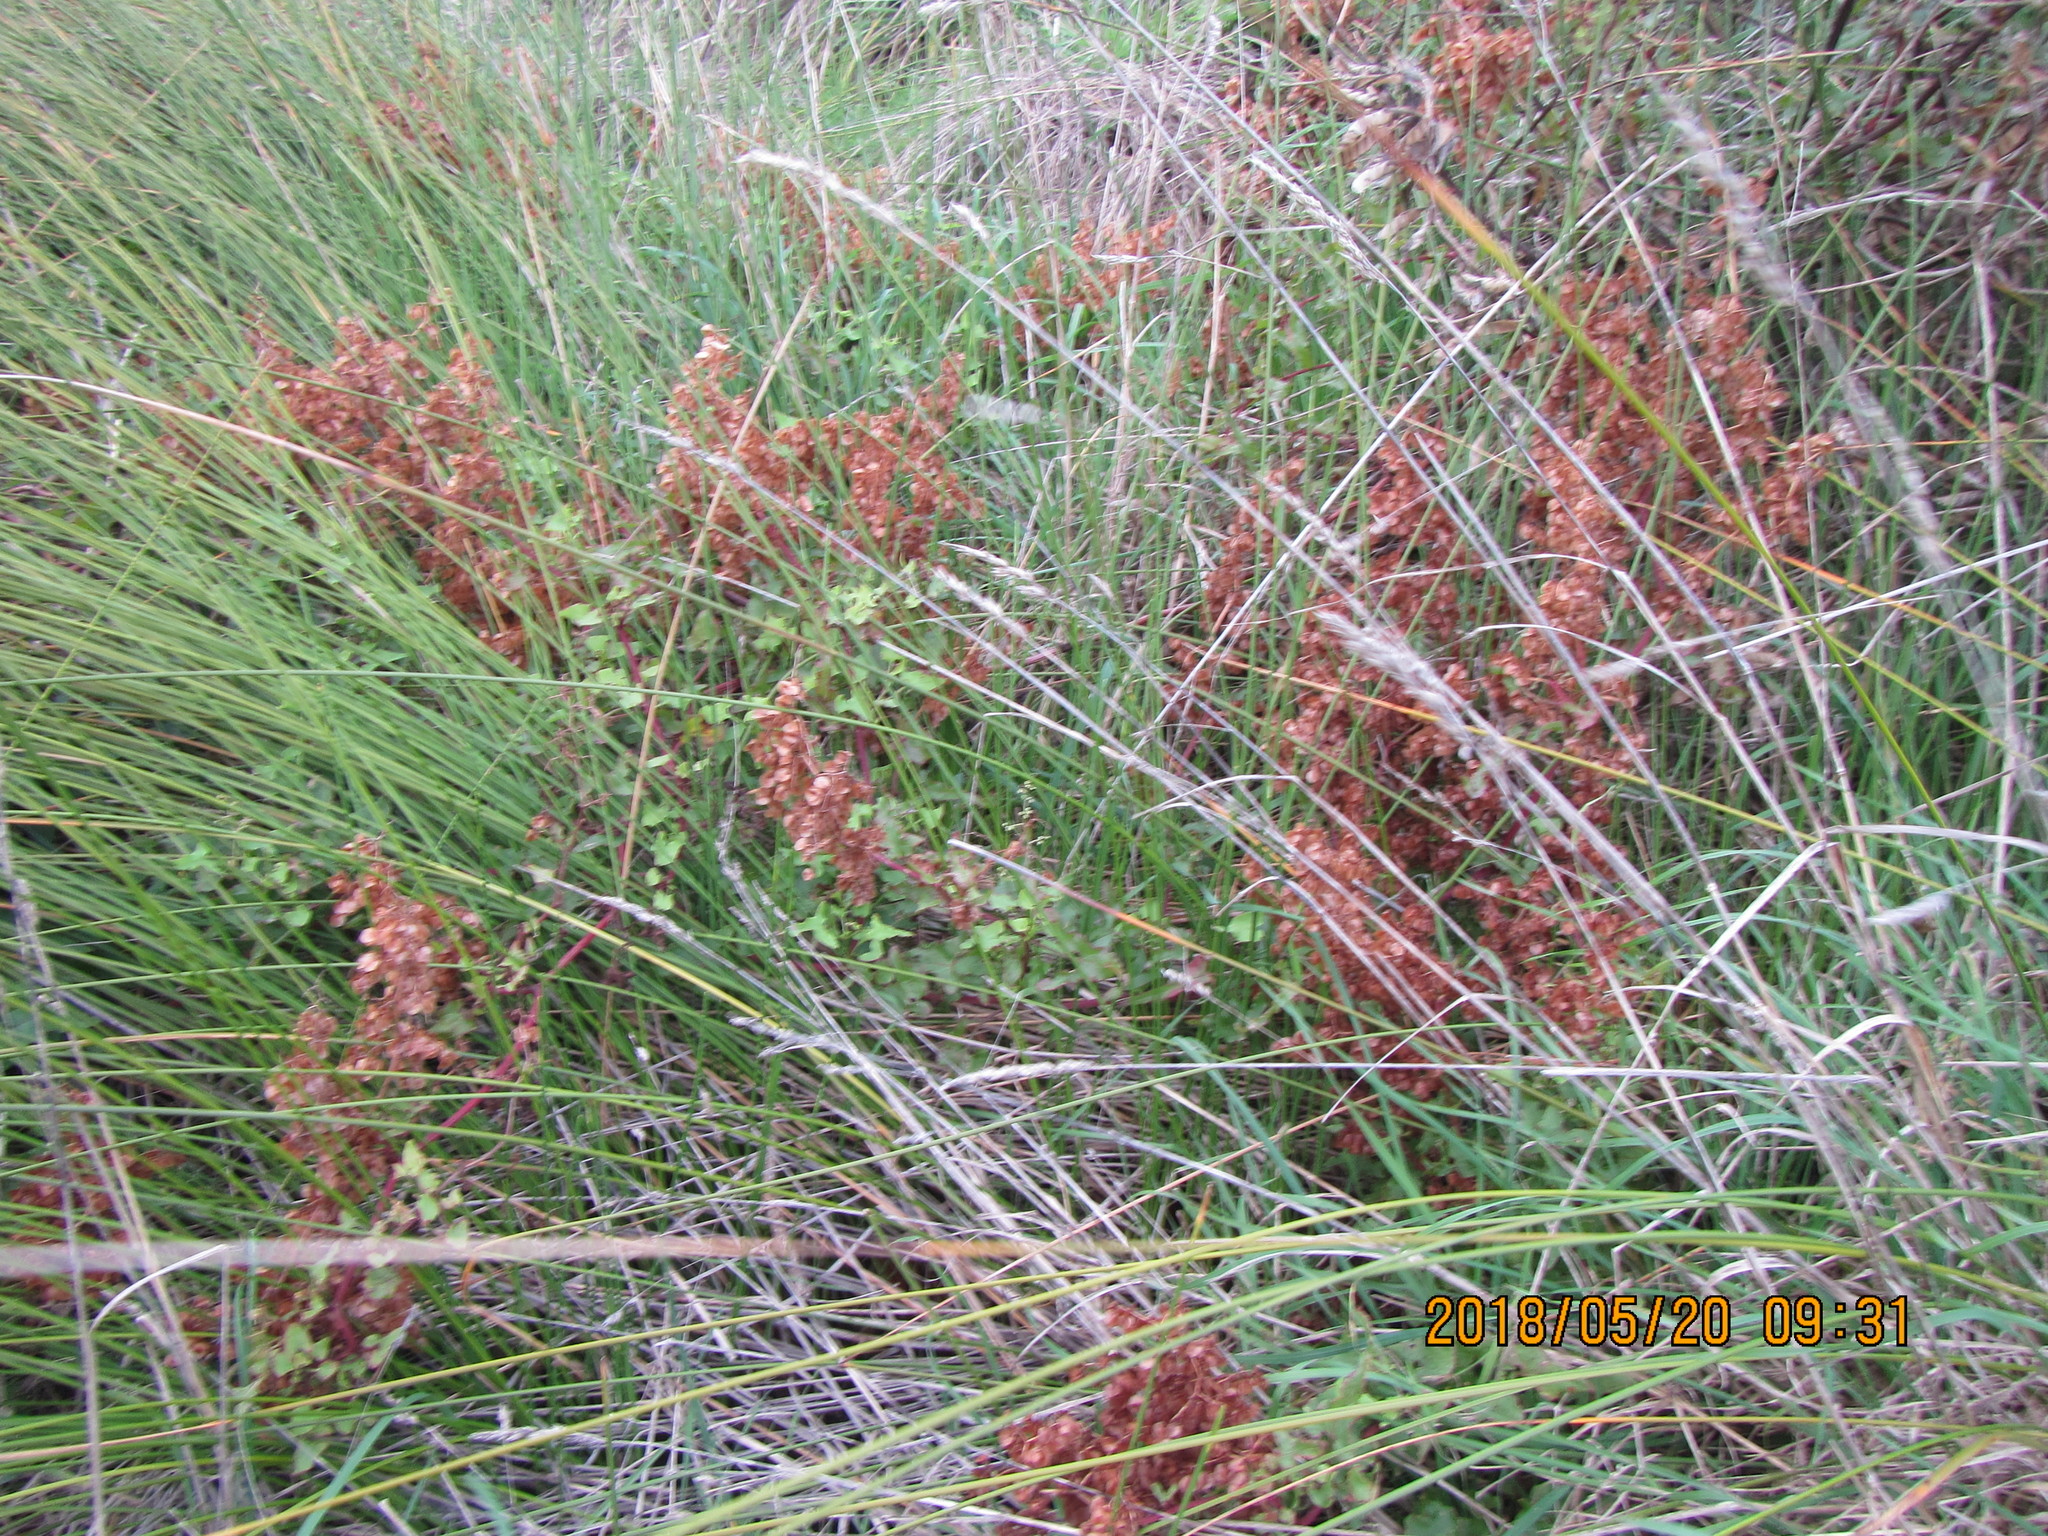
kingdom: Plantae
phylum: Tracheophyta
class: Magnoliopsida
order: Caryophyllales
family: Polygonaceae
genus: Rumex
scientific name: Rumex sagittatus
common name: Climbing dock
